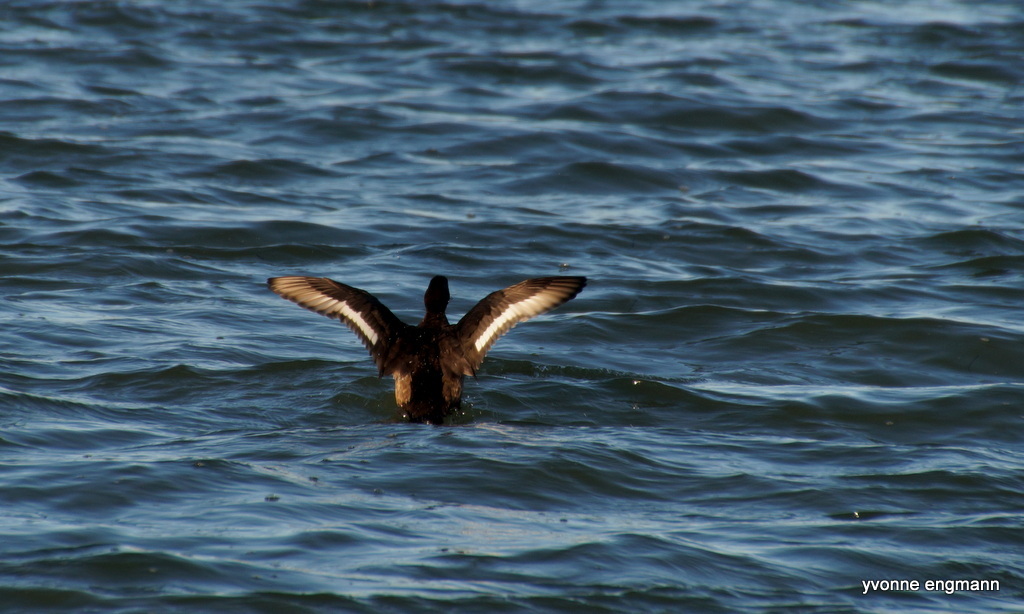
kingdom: Animalia
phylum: Chordata
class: Aves
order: Anseriformes
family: Anatidae
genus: Aythya
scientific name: Aythya fuligula
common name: Tufted duck
